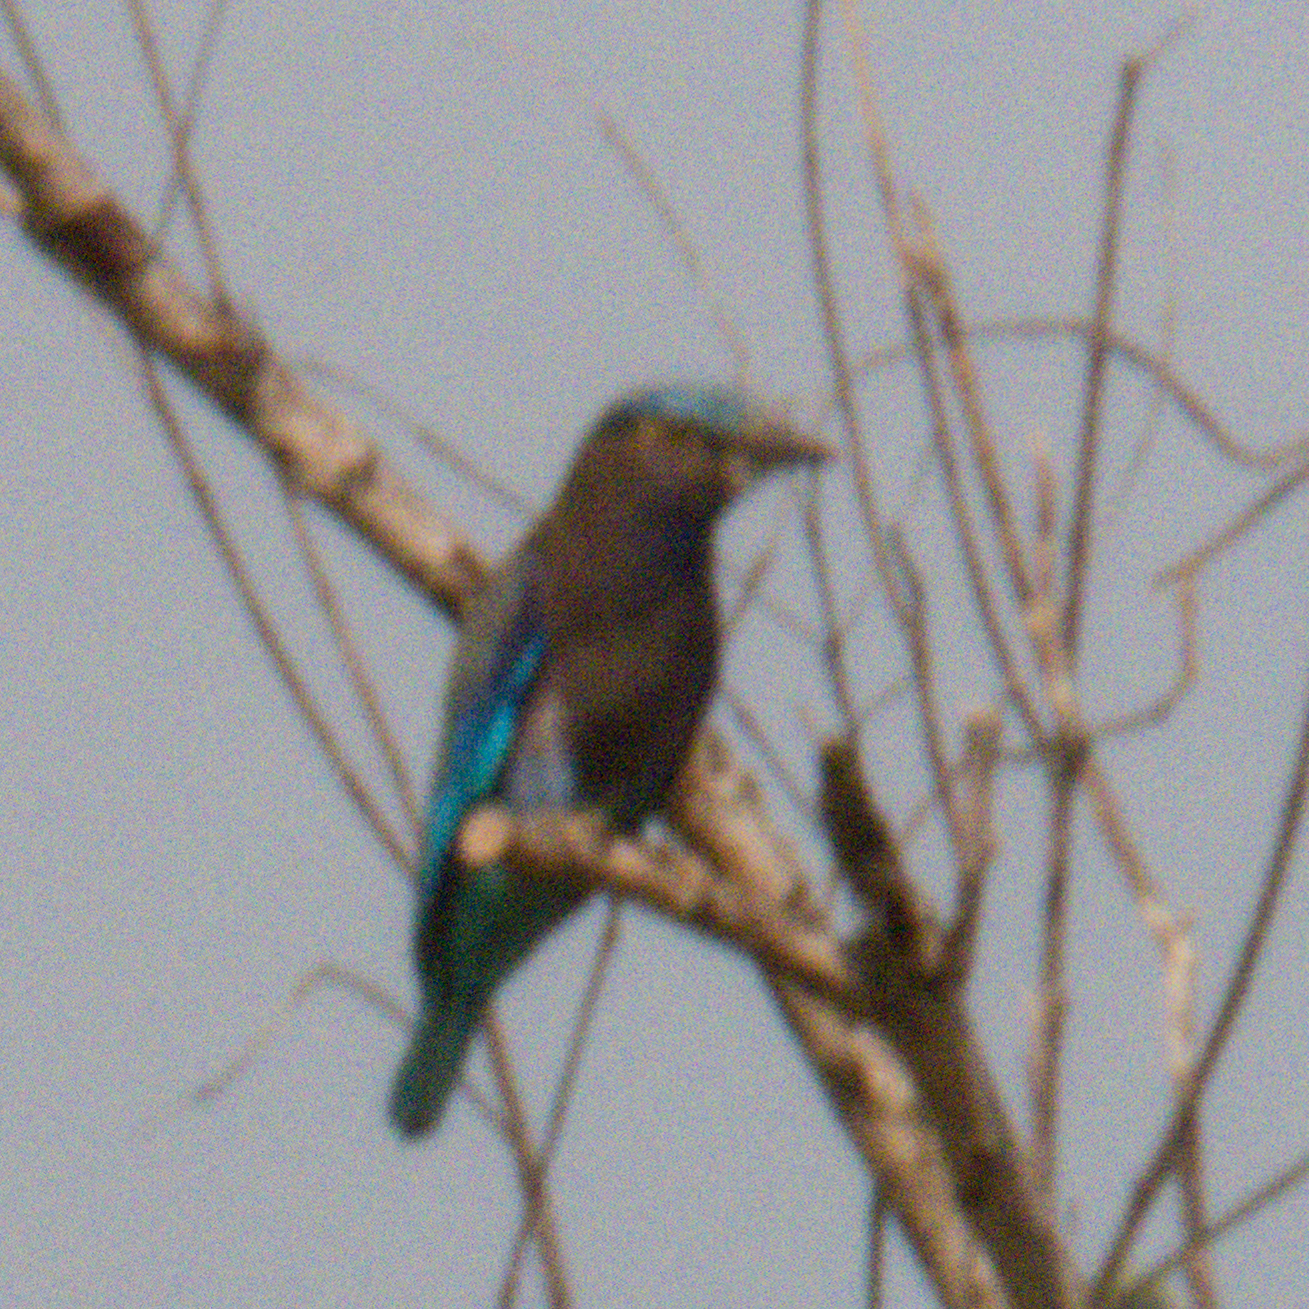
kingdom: Animalia
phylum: Chordata
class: Aves
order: Coraciiformes
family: Coraciidae
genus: Coracias
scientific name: Coracias affinis
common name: Indochinese roller
